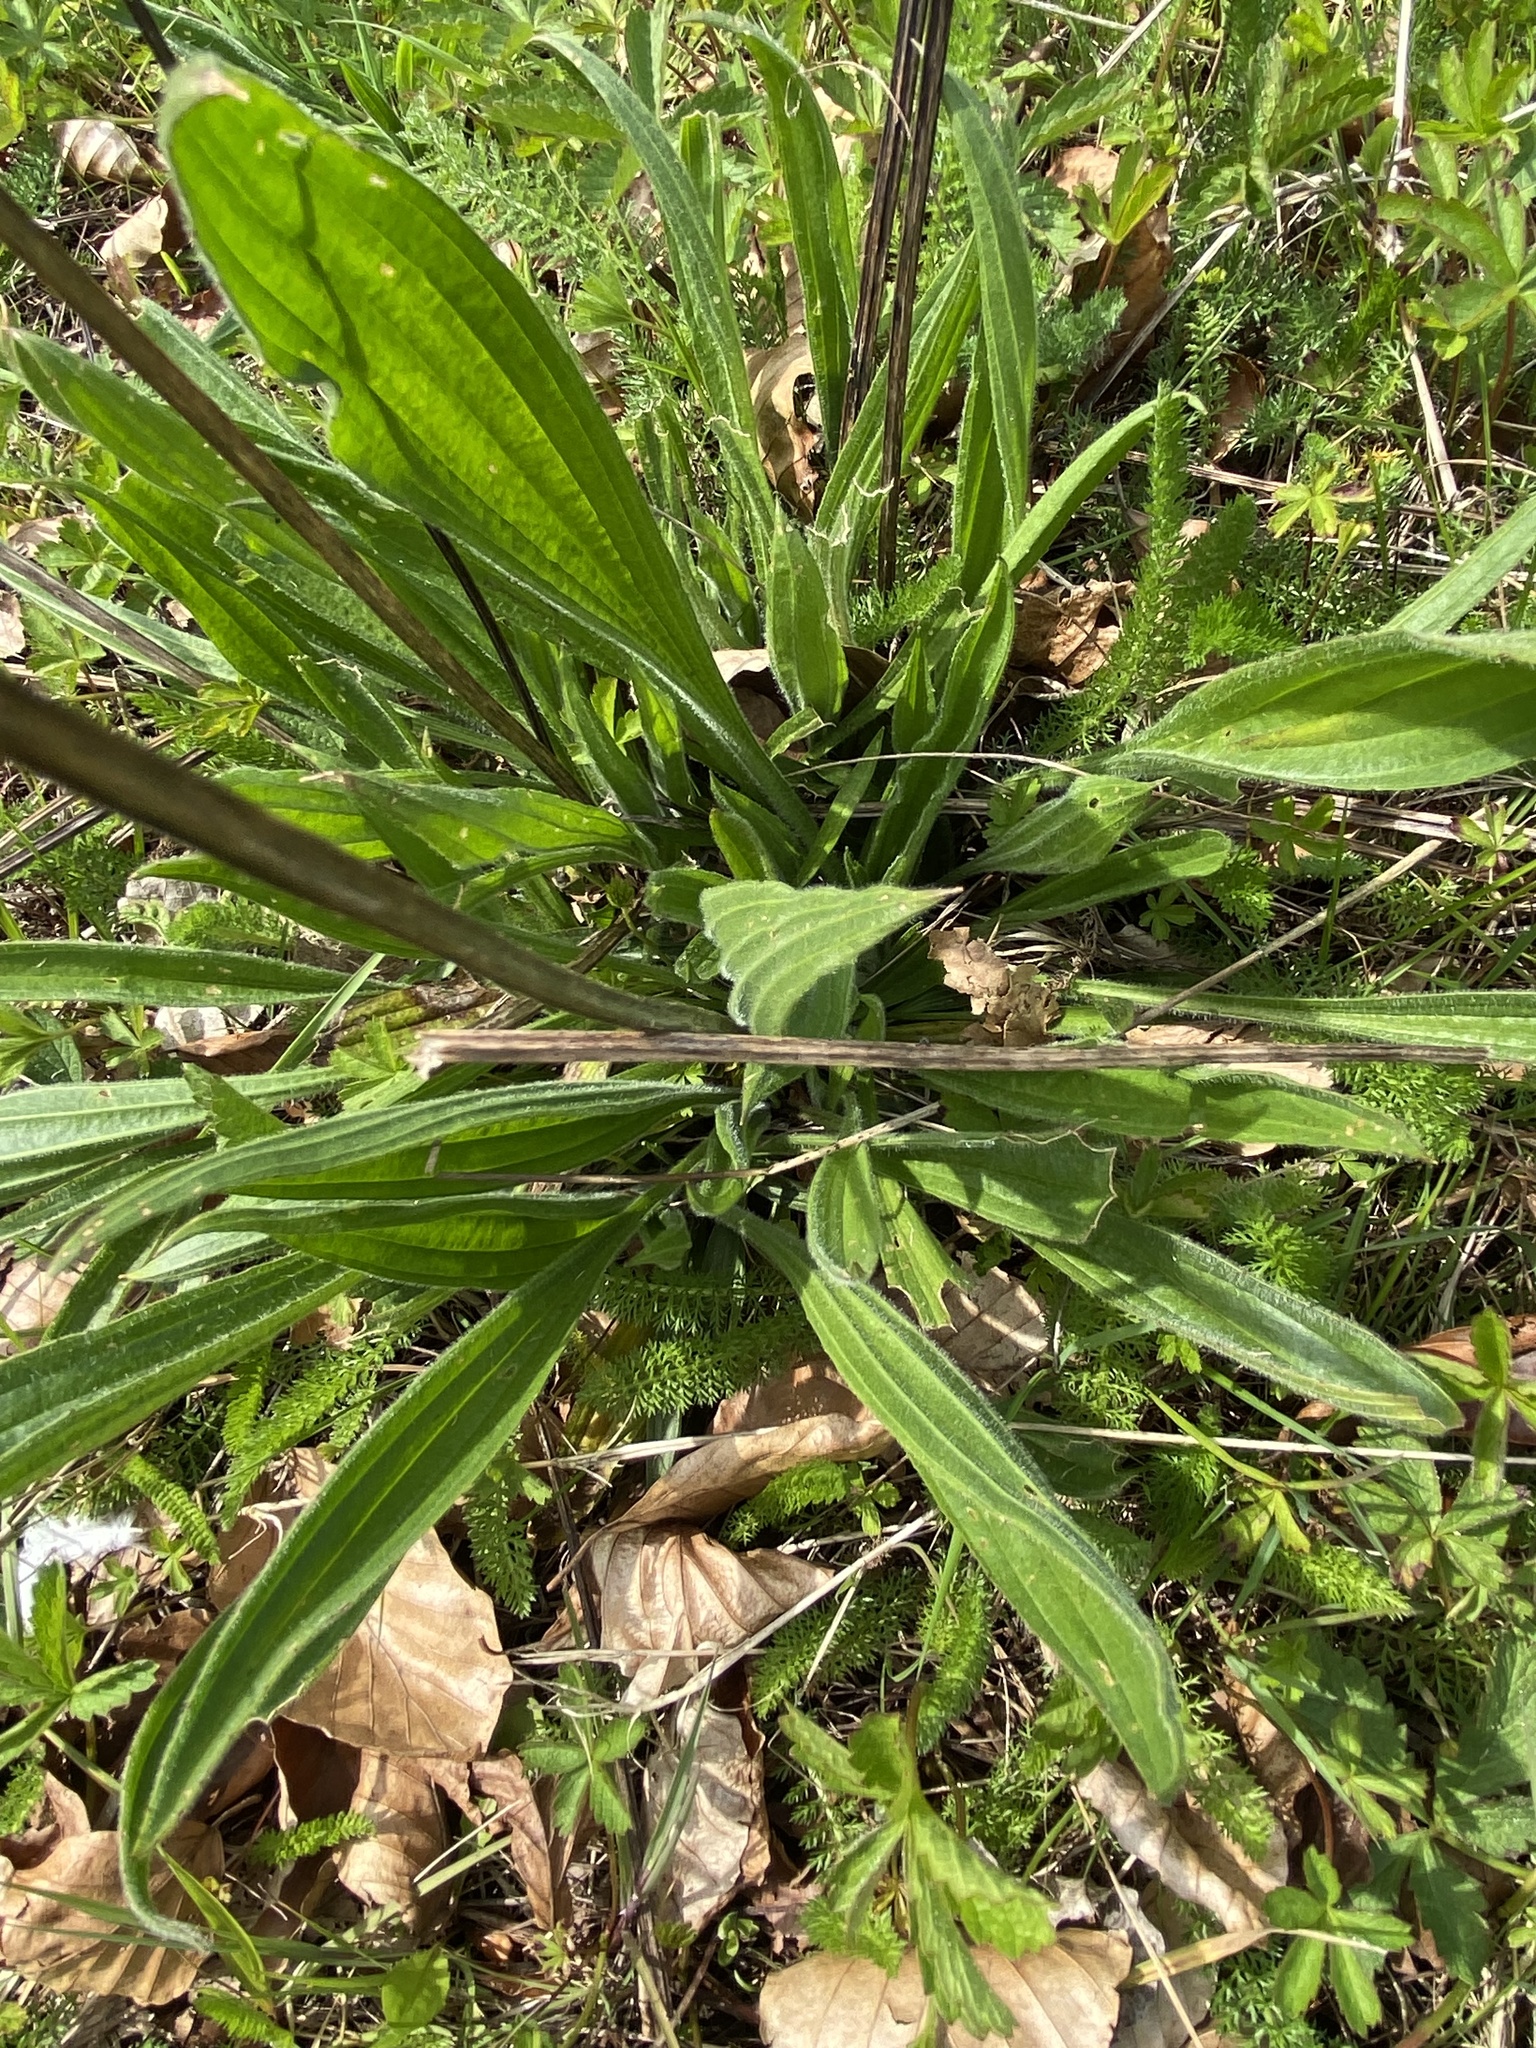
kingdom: Plantae
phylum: Tracheophyta
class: Magnoliopsida
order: Lamiales
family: Plantaginaceae
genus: Plantago
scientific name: Plantago lanceolata
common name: Ribwort plantain
